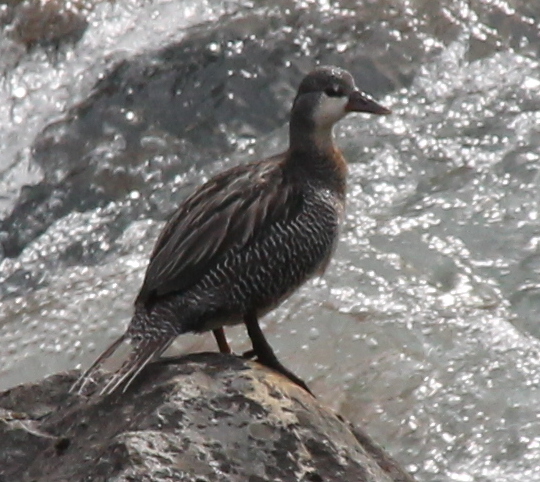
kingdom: Animalia
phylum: Chordata
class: Aves
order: Anseriformes
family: Anatidae
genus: Merganetta
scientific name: Merganetta armata
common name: Torrent duck
